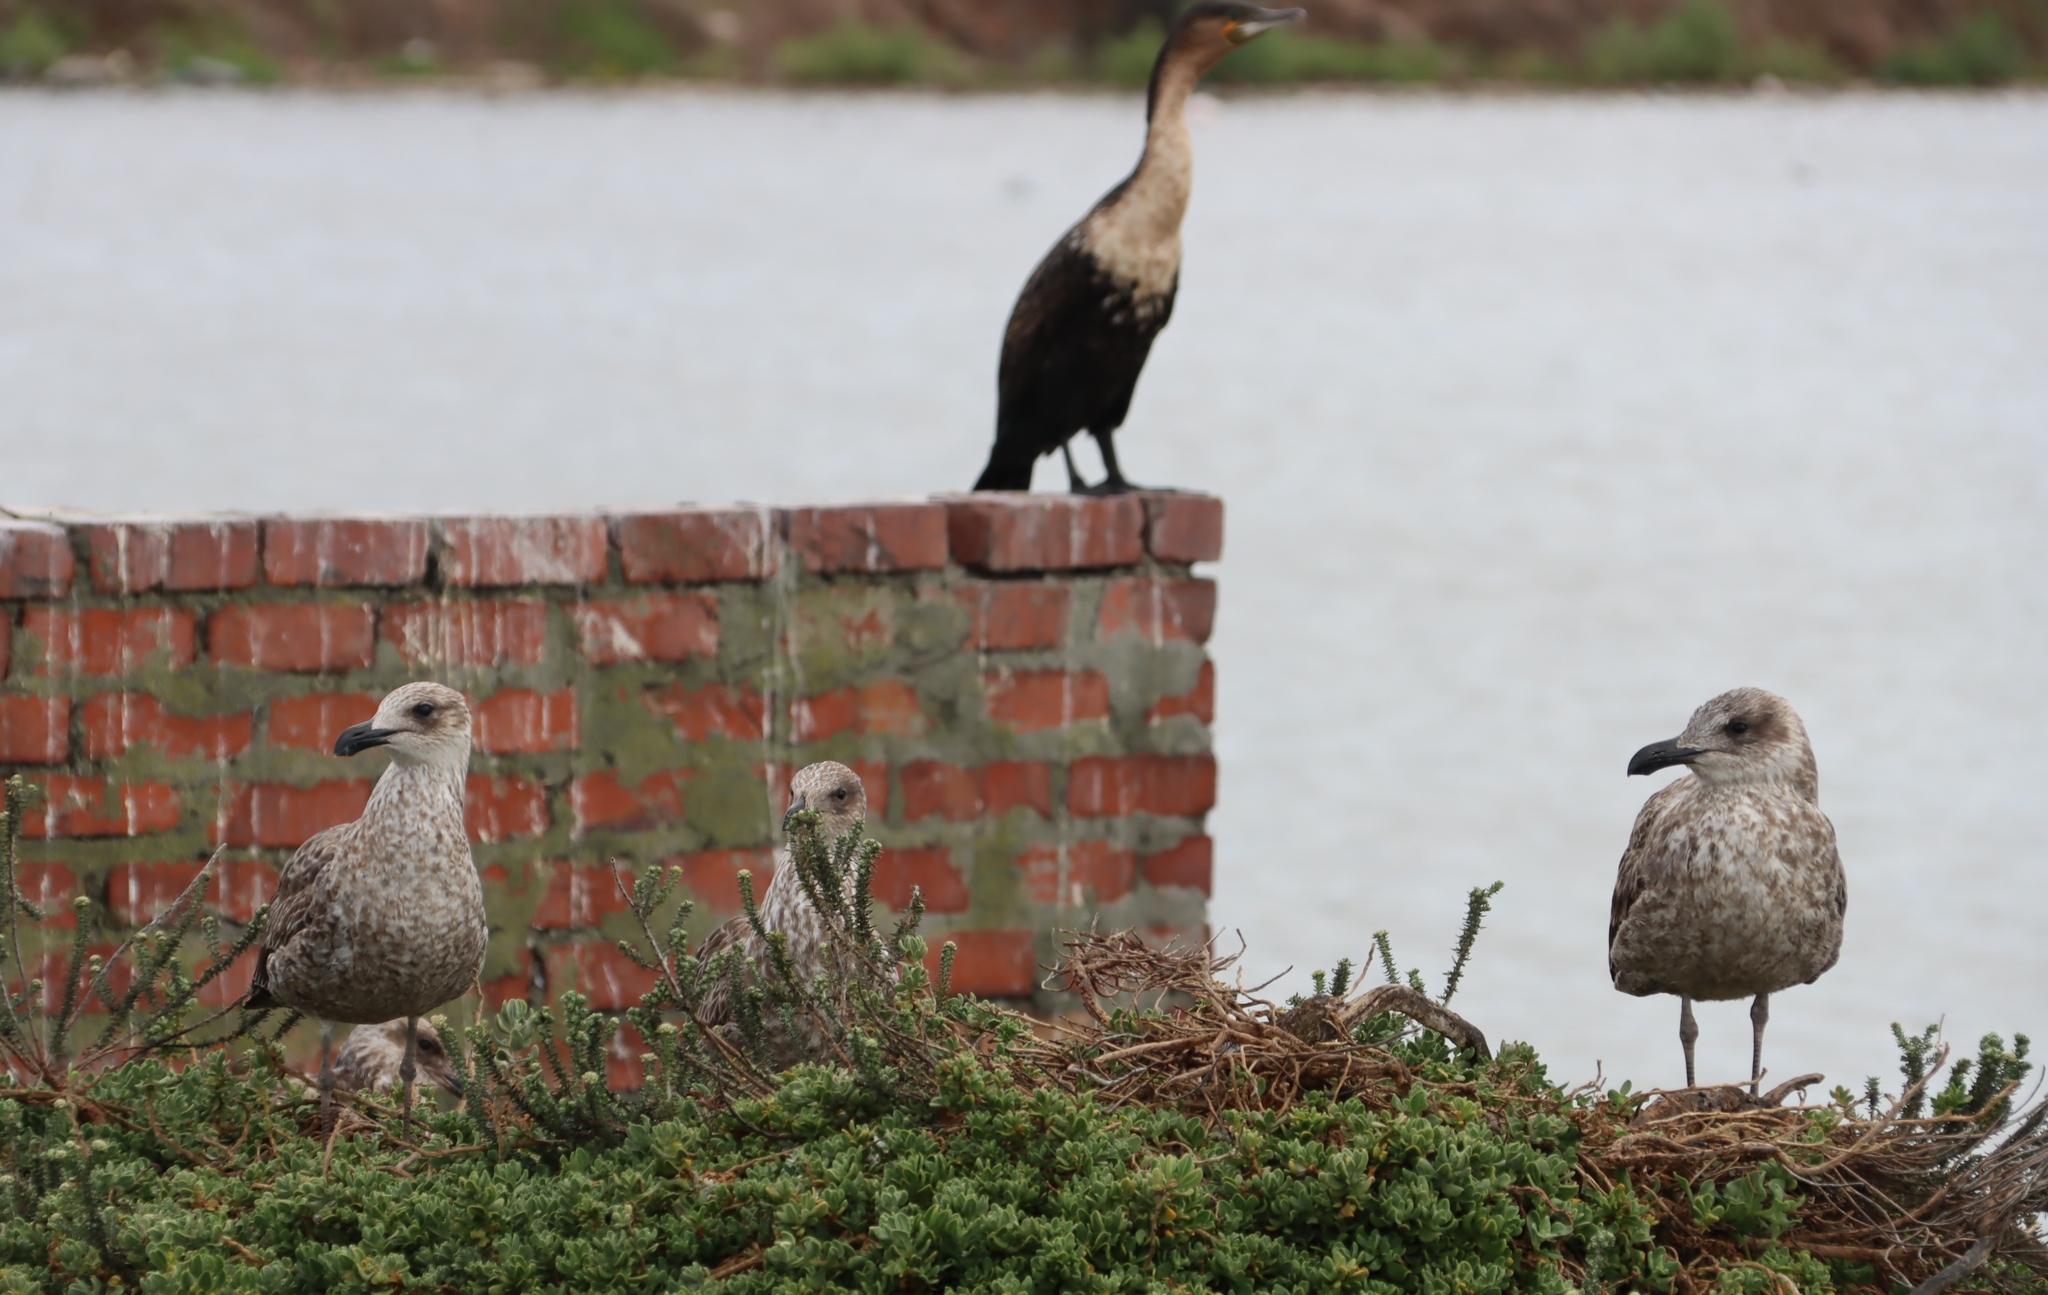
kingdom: Animalia
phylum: Chordata
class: Aves
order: Suliformes
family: Phalacrocoracidae
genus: Phalacrocorax
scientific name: Phalacrocorax carbo
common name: Great cormorant
